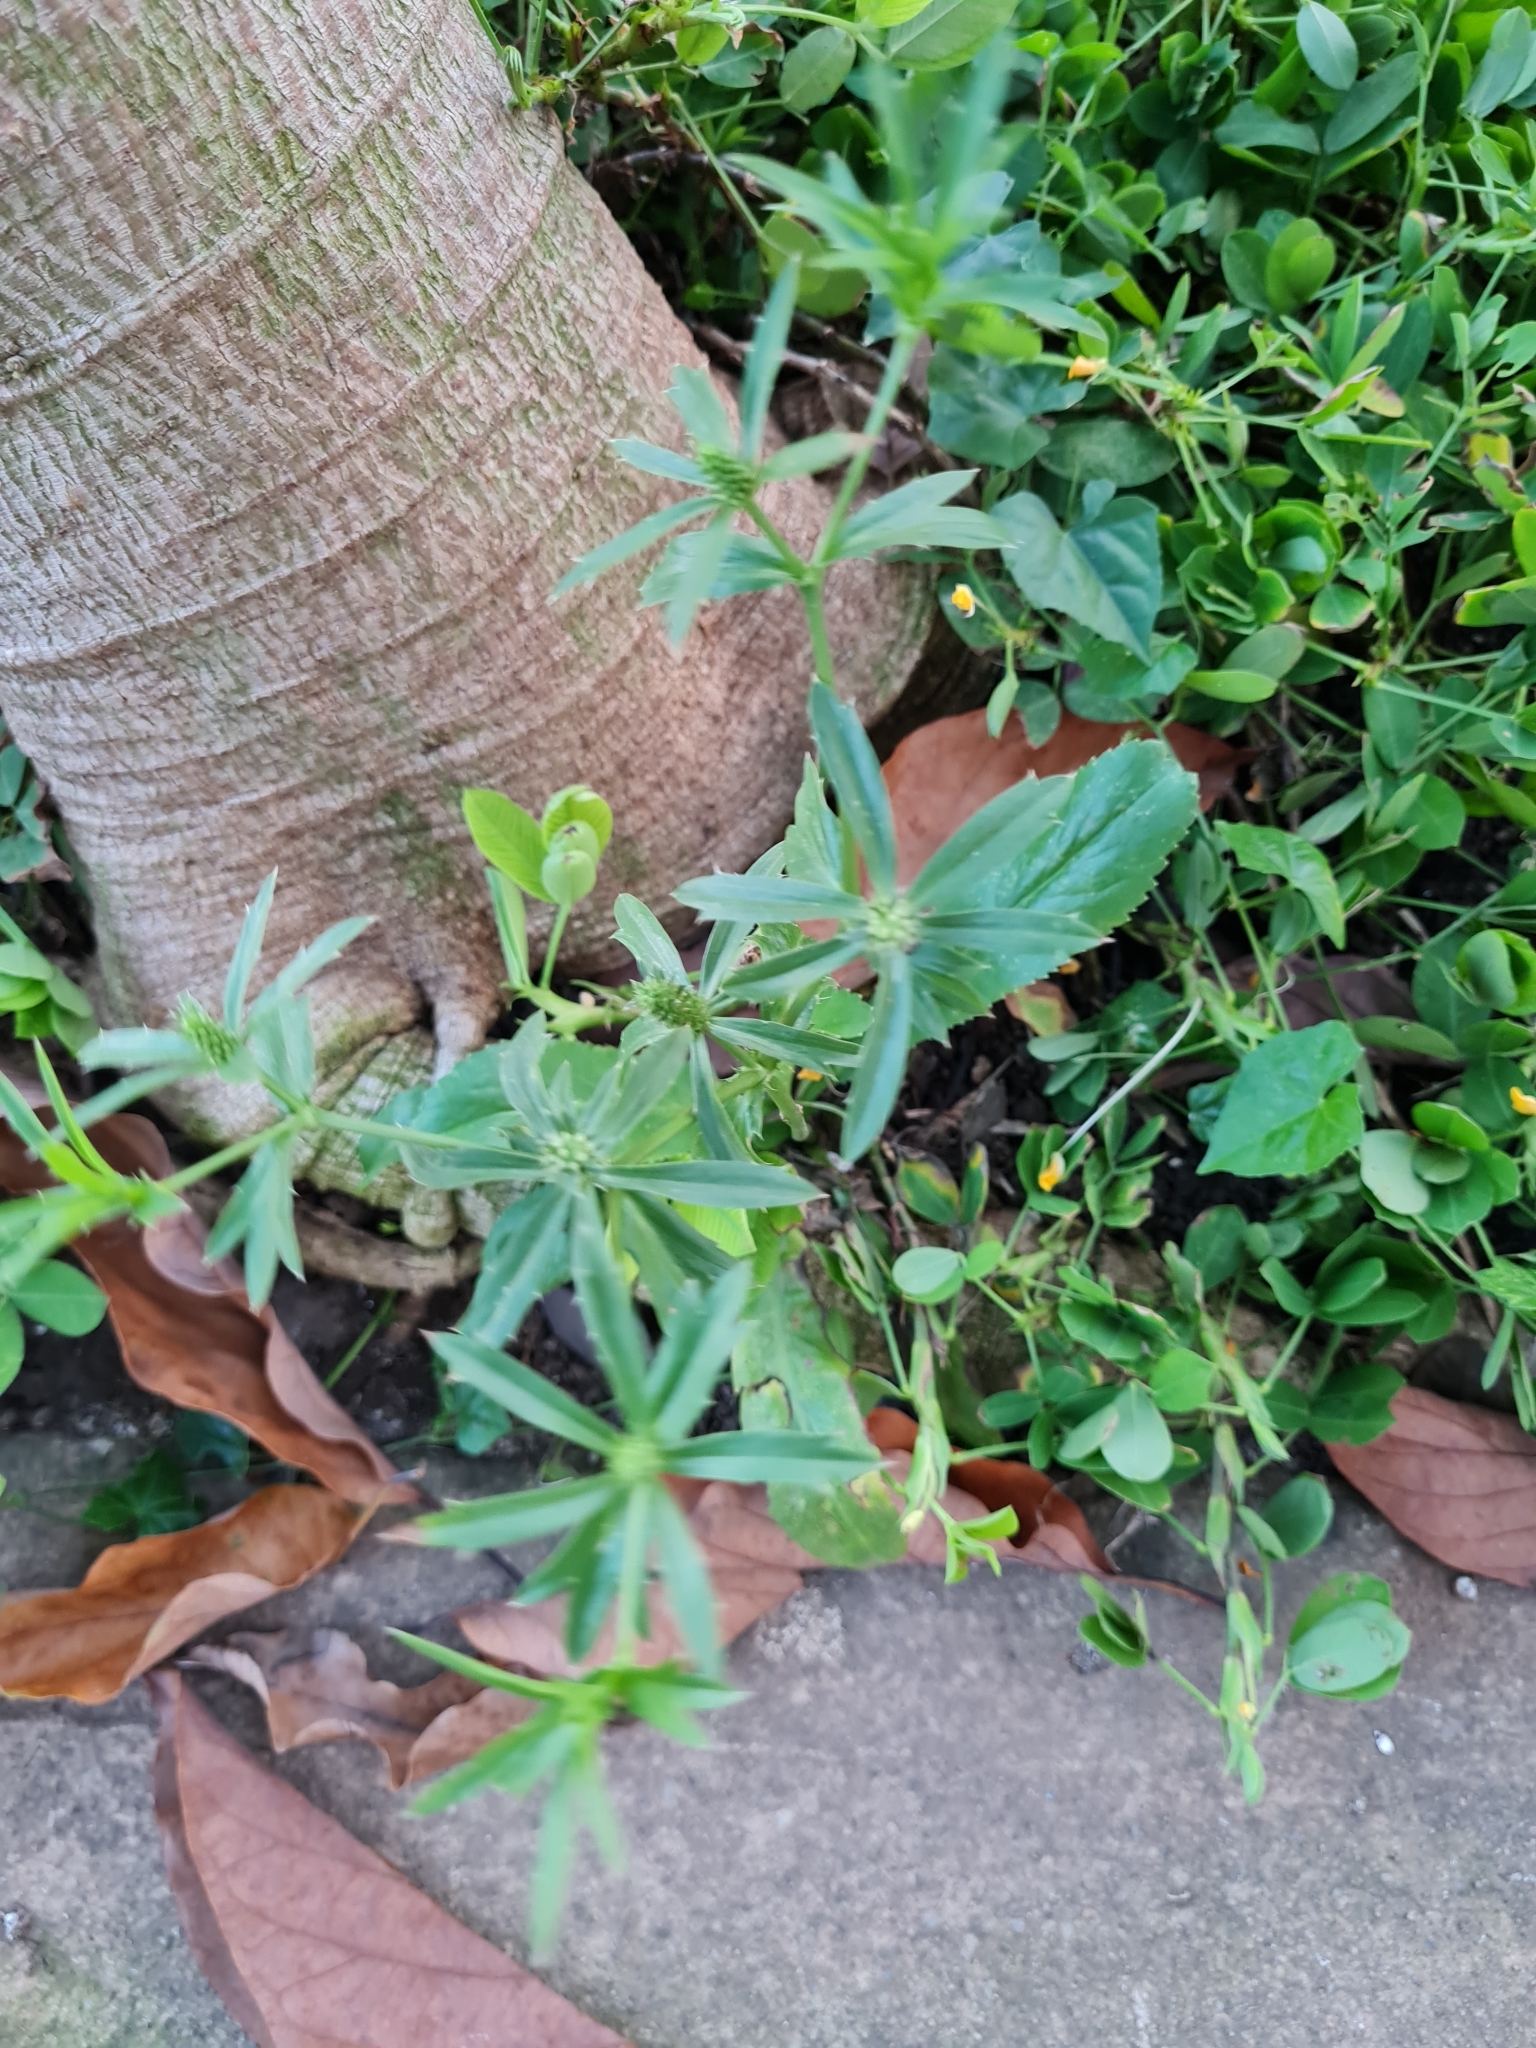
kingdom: Plantae
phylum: Tracheophyta
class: Magnoliopsida
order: Apiales
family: Apiaceae
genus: Eryngium
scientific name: Eryngium foetidum
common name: Fitweed
